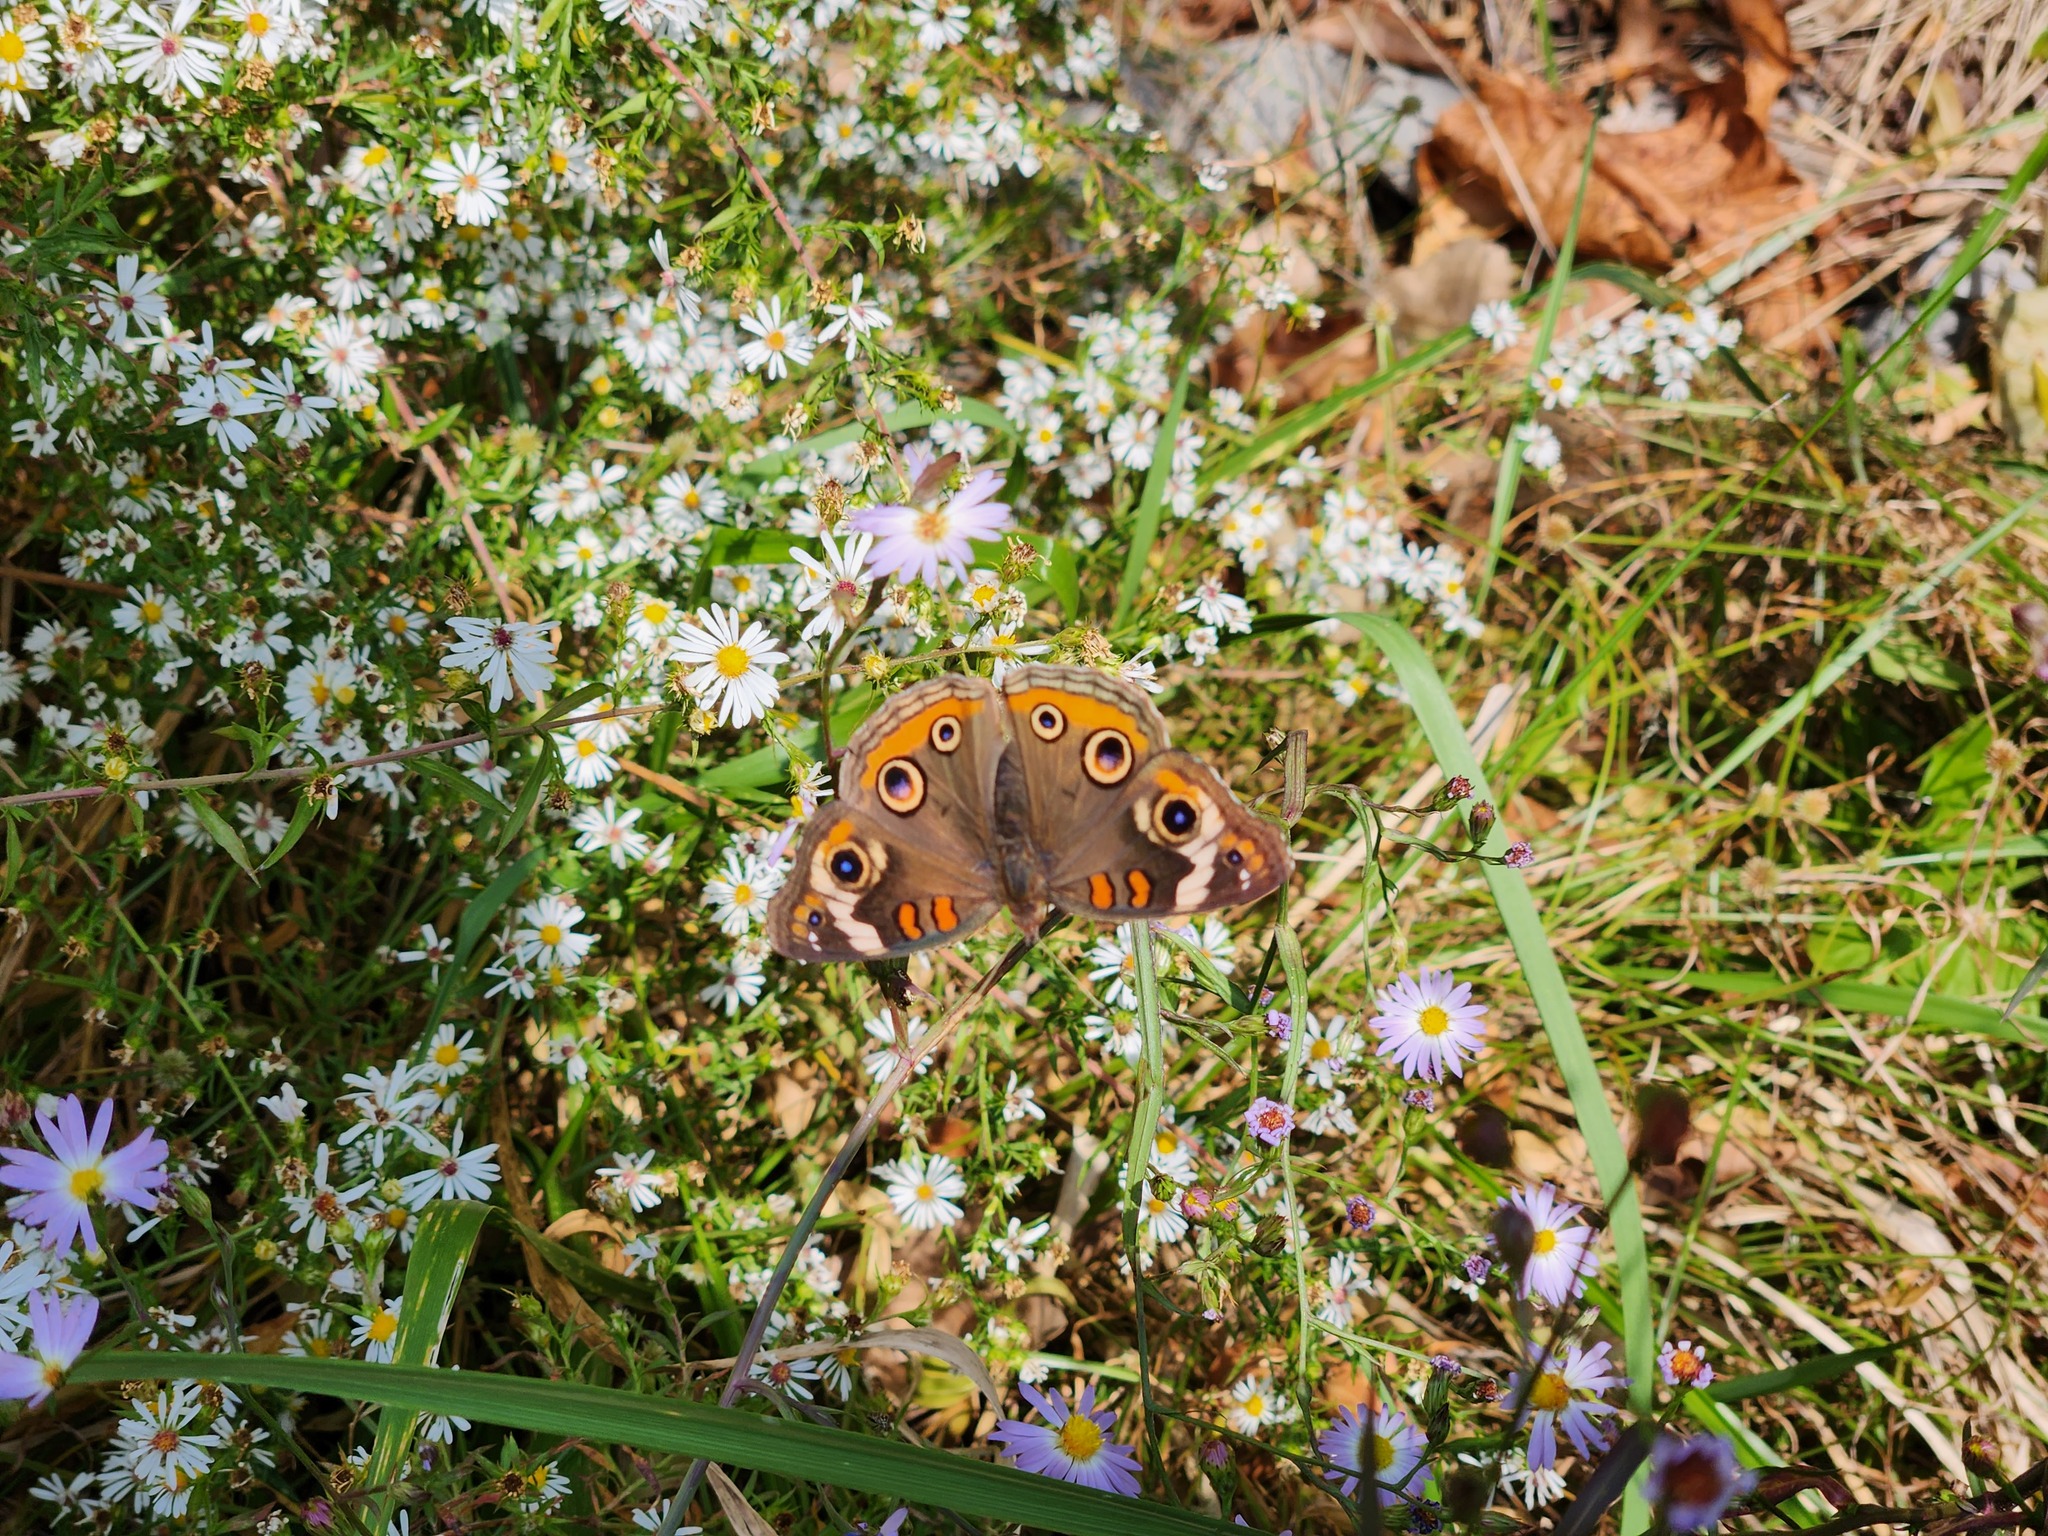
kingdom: Animalia
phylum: Arthropoda
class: Insecta
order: Lepidoptera
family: Nymphalidae
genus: Junonia
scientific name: Junonia coenia
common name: Common buckeye
